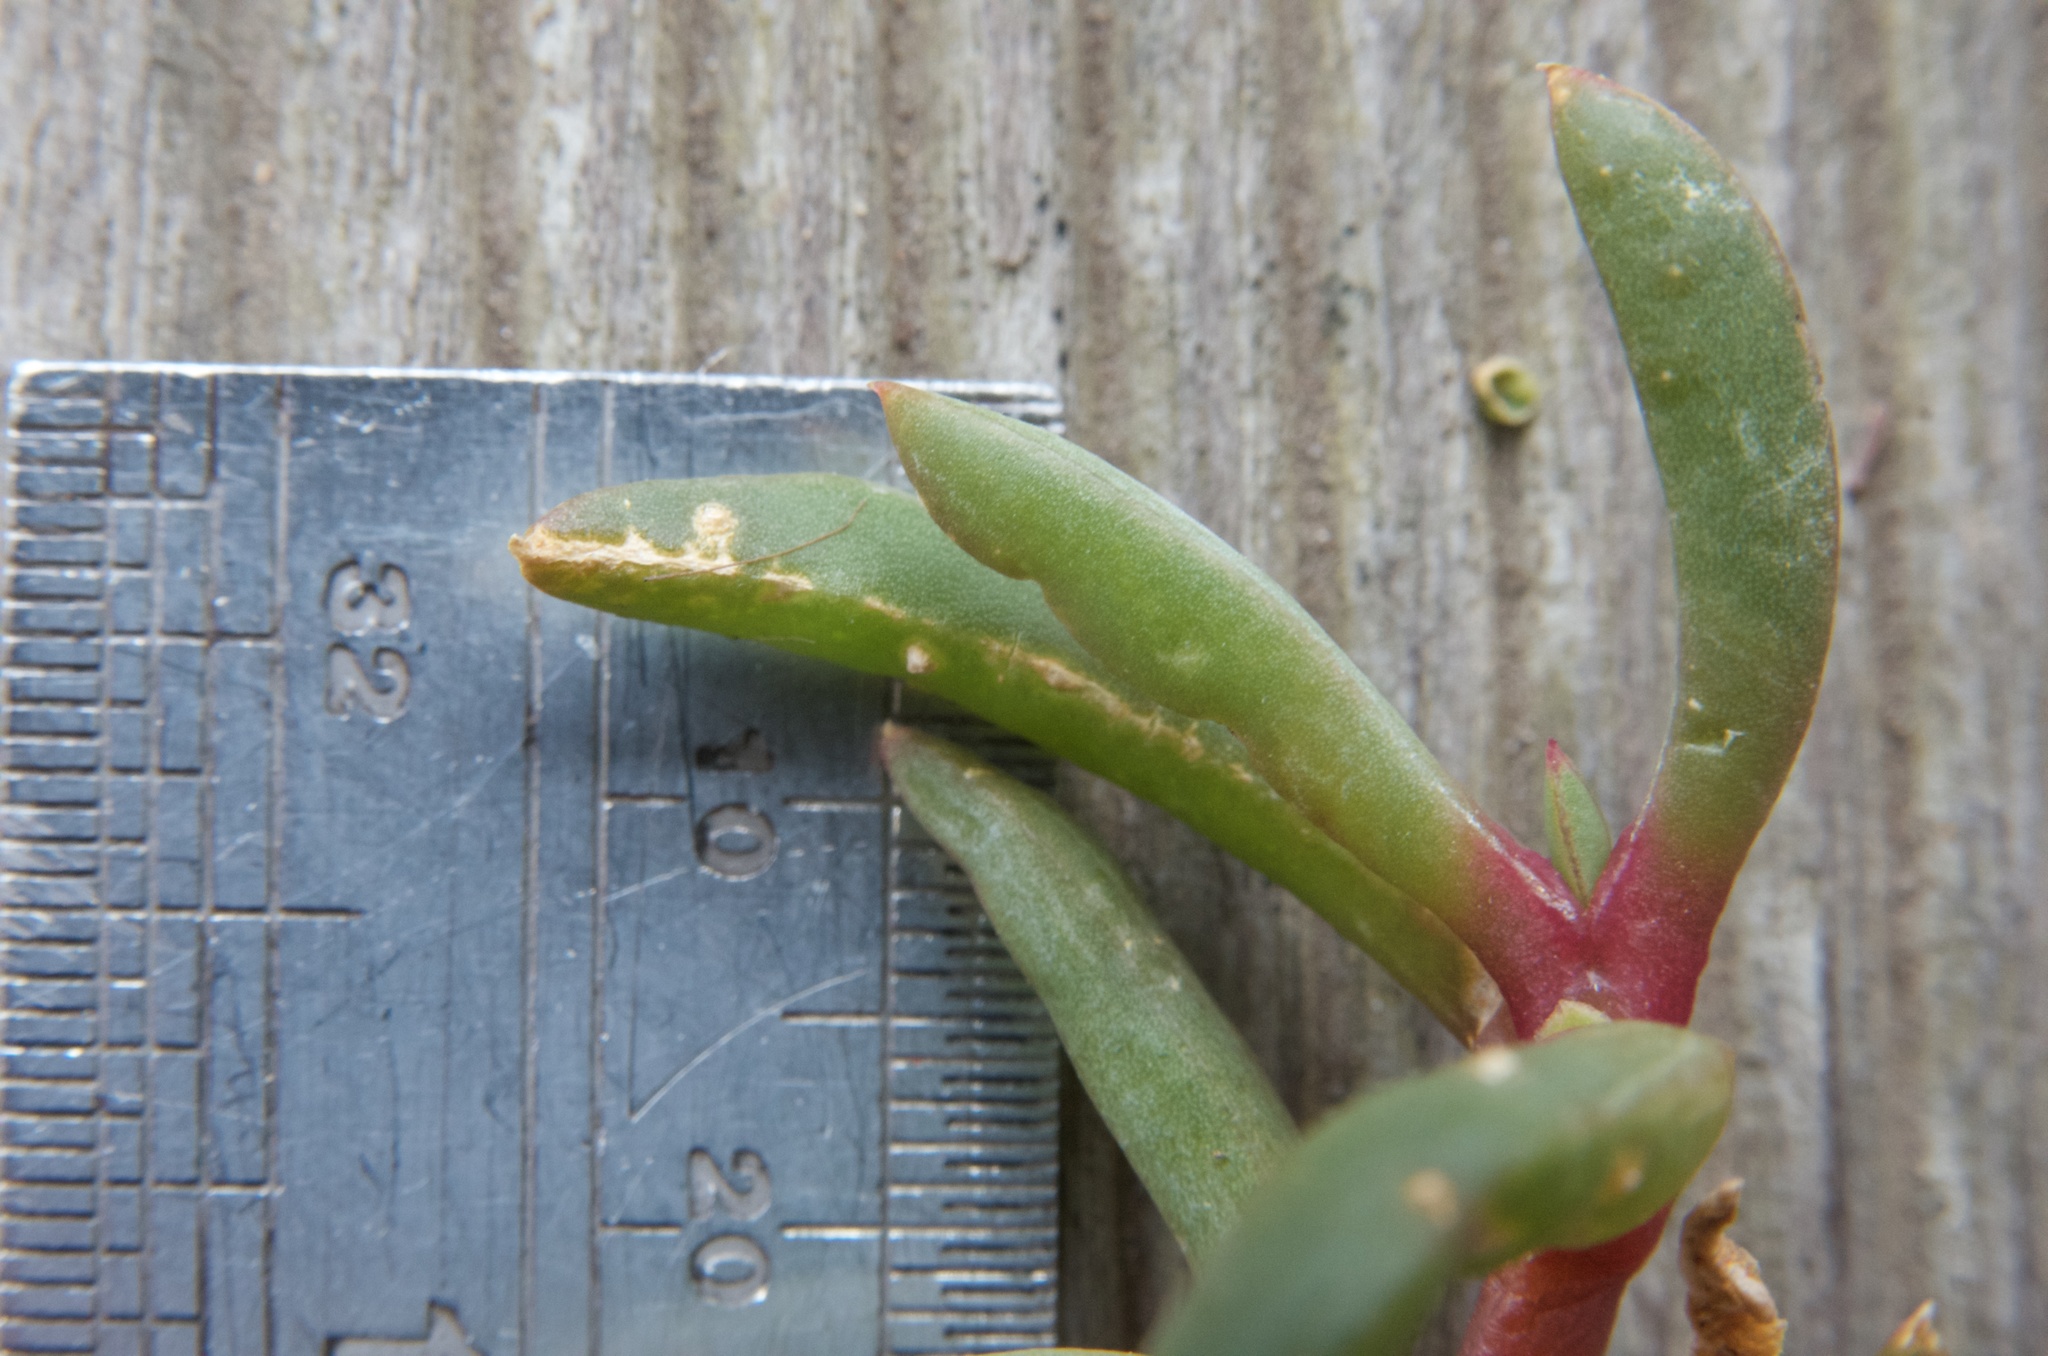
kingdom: Plantae
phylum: Tracheophyta
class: Magnoliopsida
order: Caryophyllales
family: Aizoaceae
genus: Disphyma
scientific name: Disphyma australe
